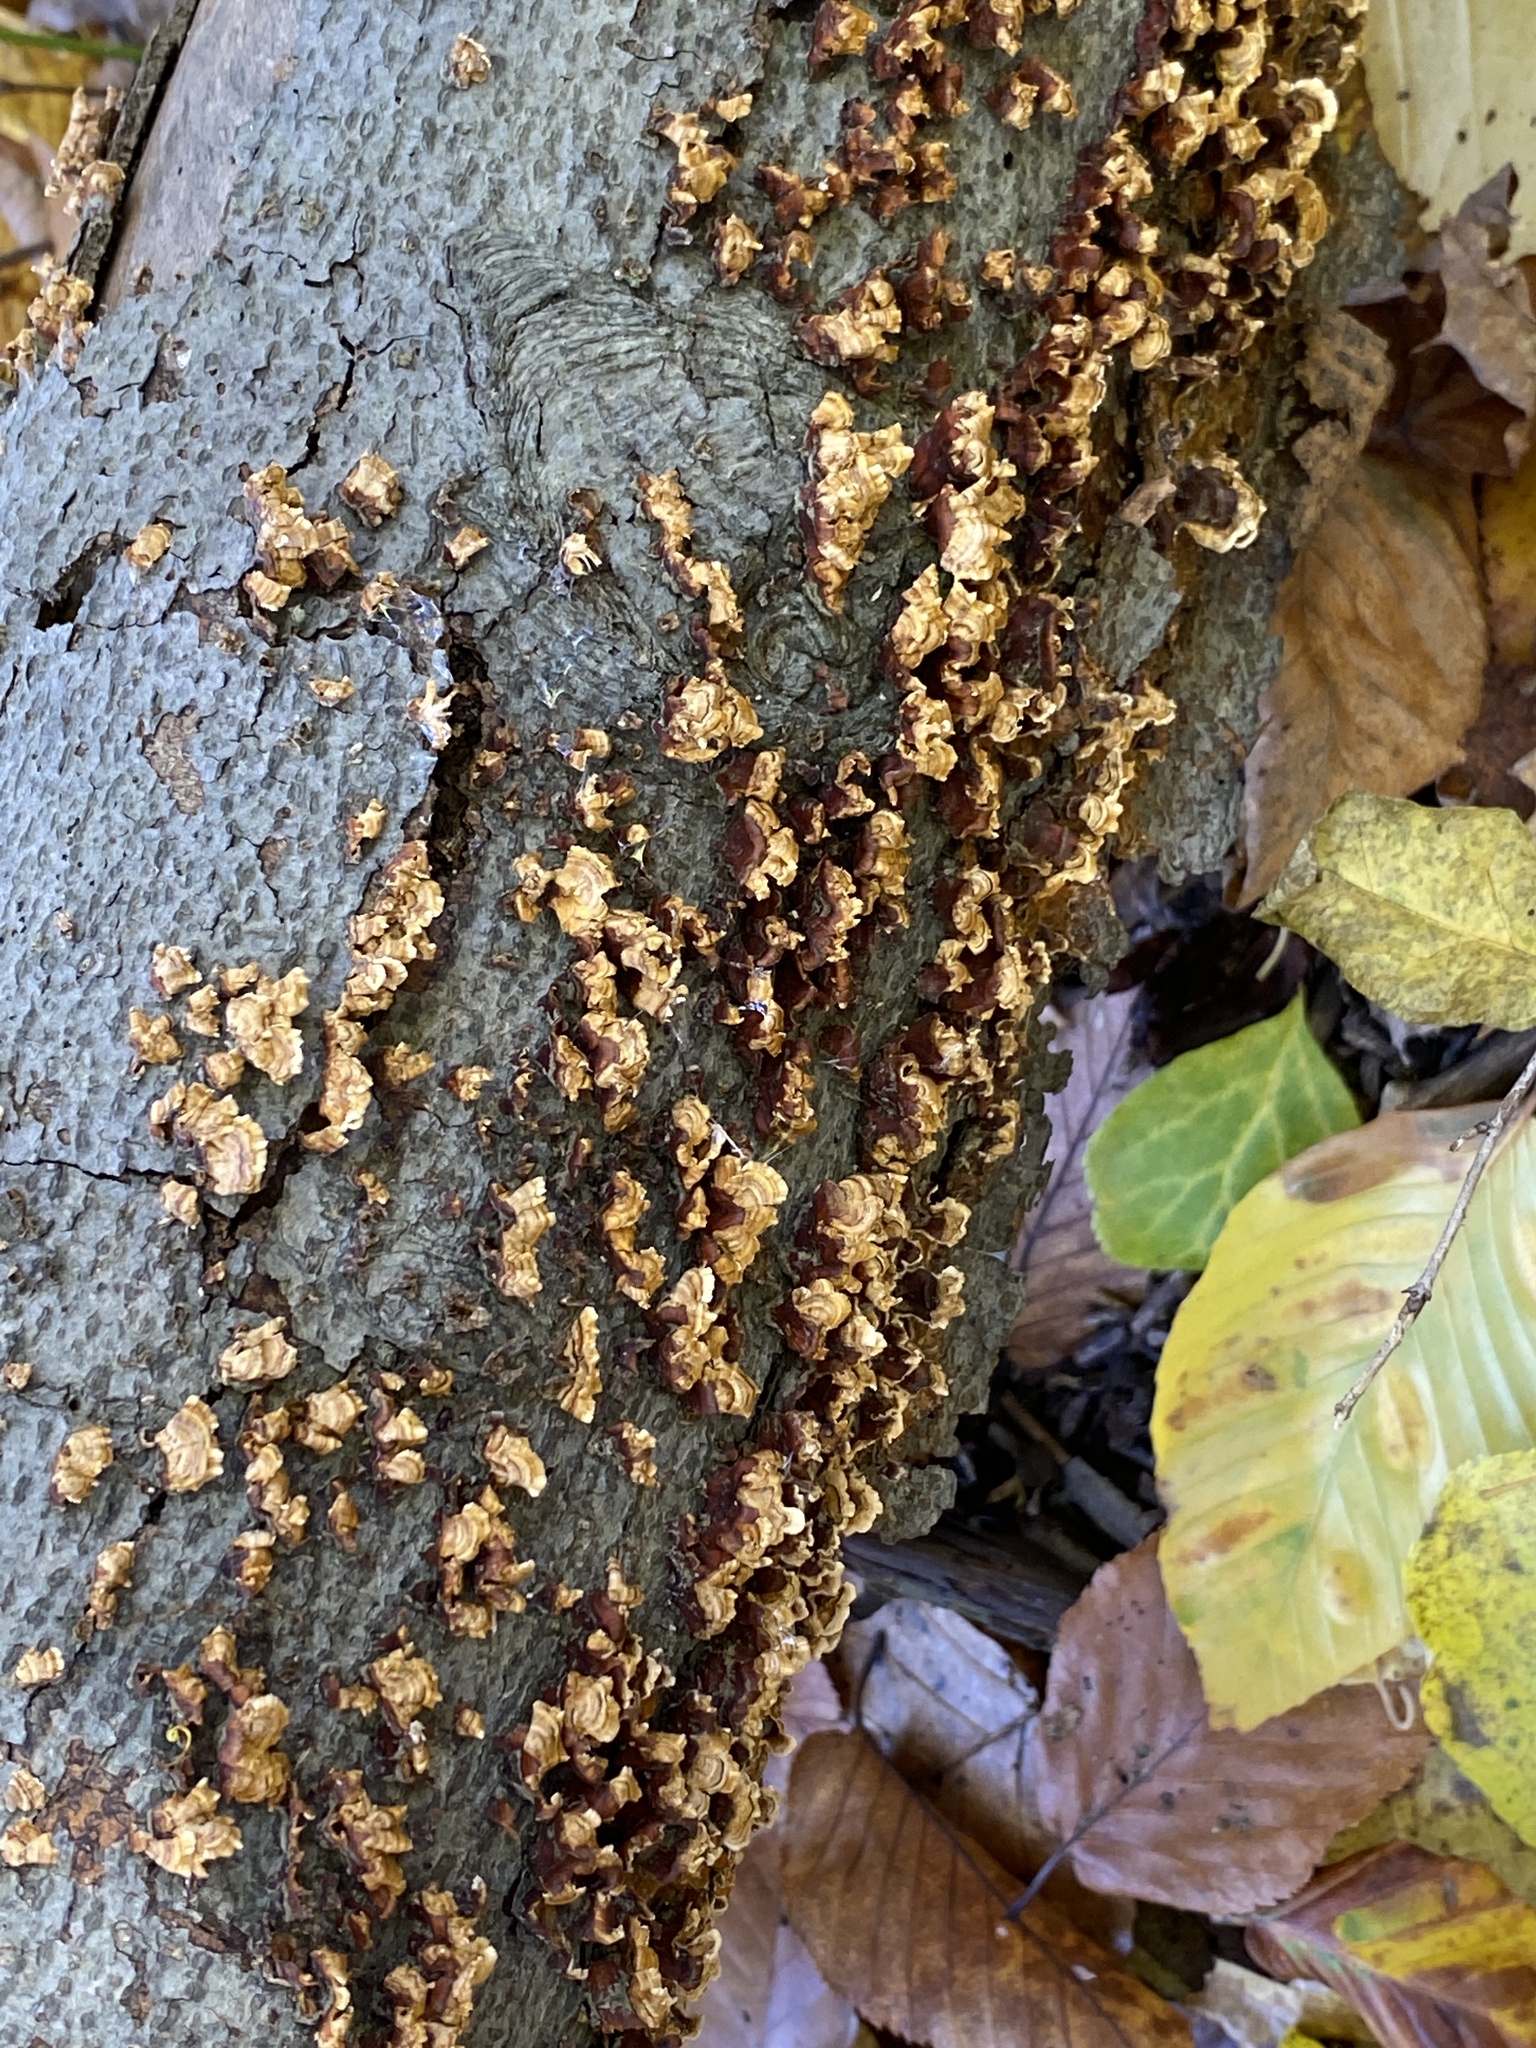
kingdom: Fungi
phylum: Basidiomycota
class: Agaricomycetes
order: Russulales
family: Stereaceae
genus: Stereum
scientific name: Stereum complicatum
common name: Crowded parchment
